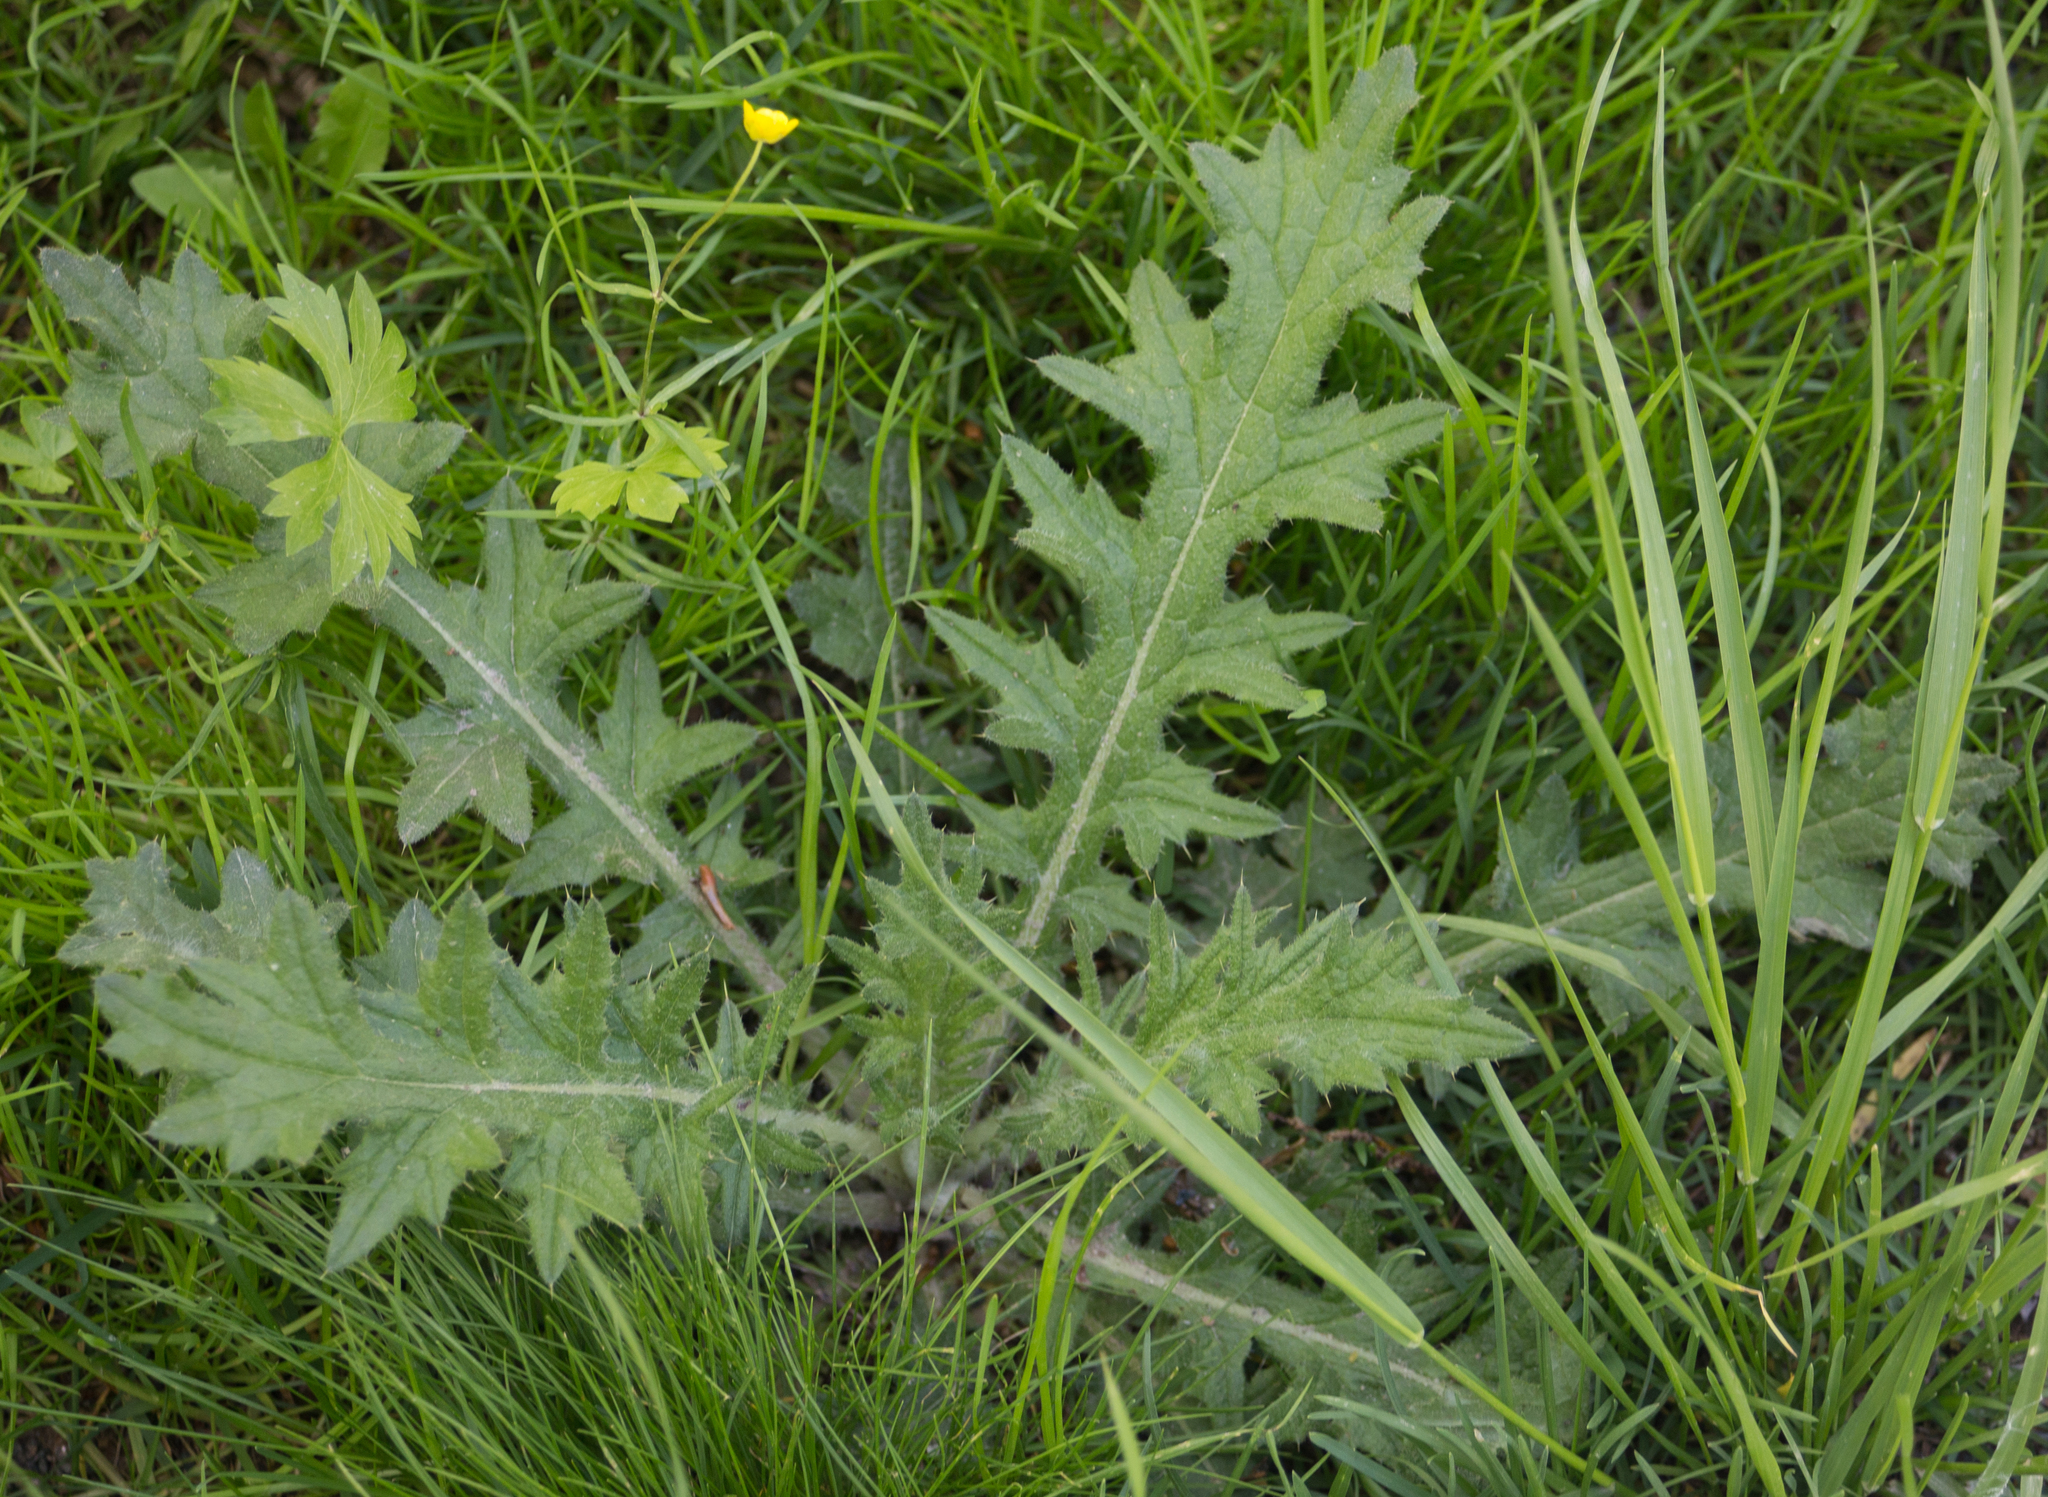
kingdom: Plantae
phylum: Tracheophyta
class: Magnoliopsida
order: Asterales
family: Asteraceae
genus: Cirsium
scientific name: Cirsium vulgare
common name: Bull thistle
